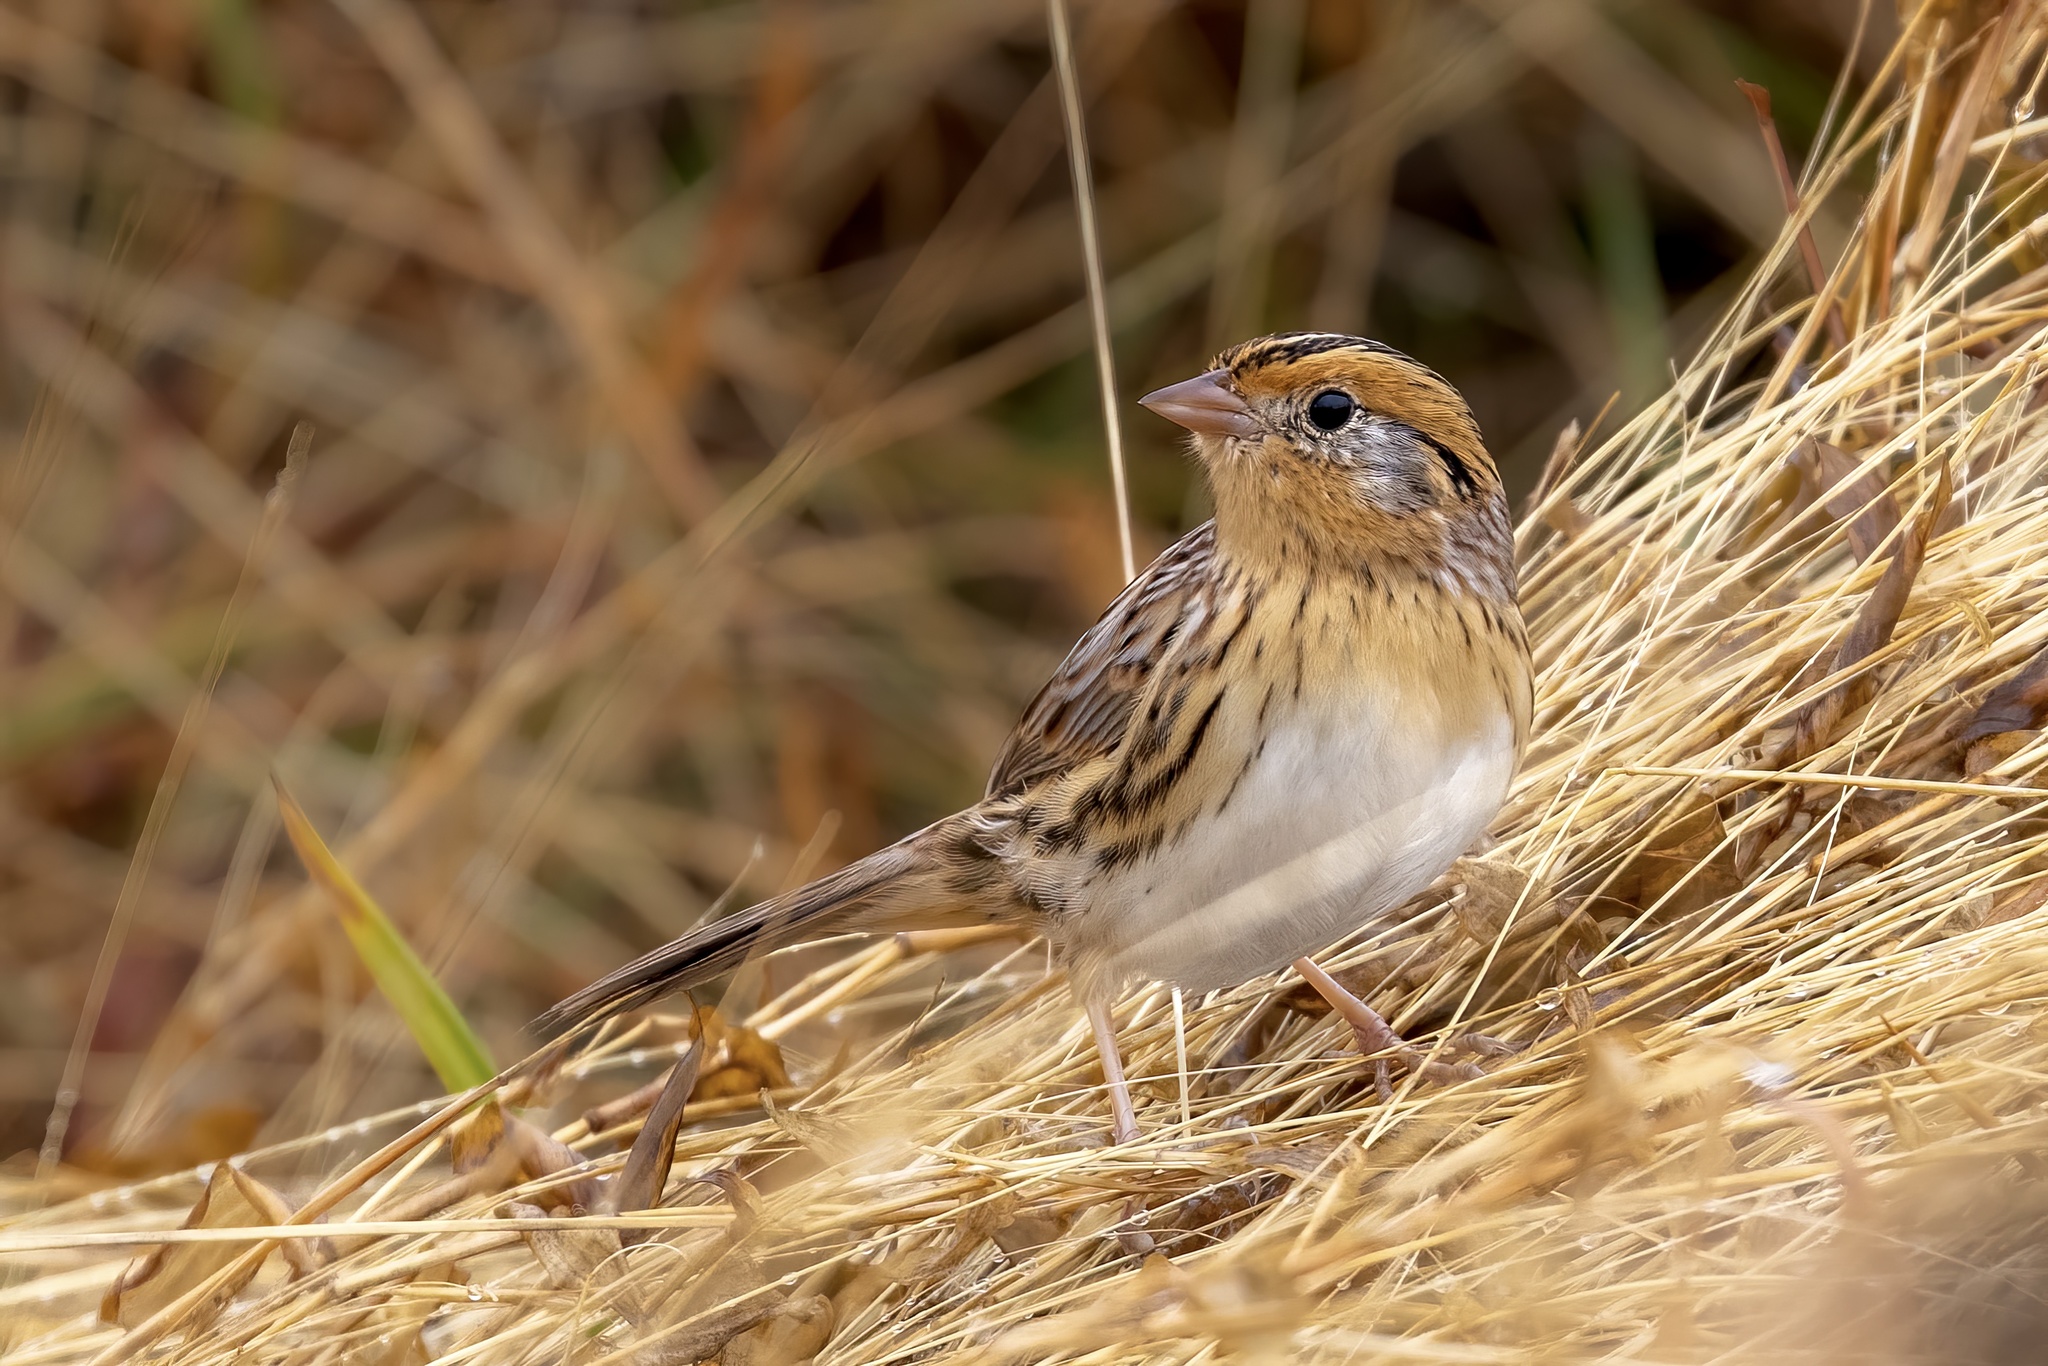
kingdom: Animalia
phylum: Chordata
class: Aves
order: Passeriformes
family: Passerellidae
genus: Ammospiza
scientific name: Ammospiza leconteii
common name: Le conte's sparrow
